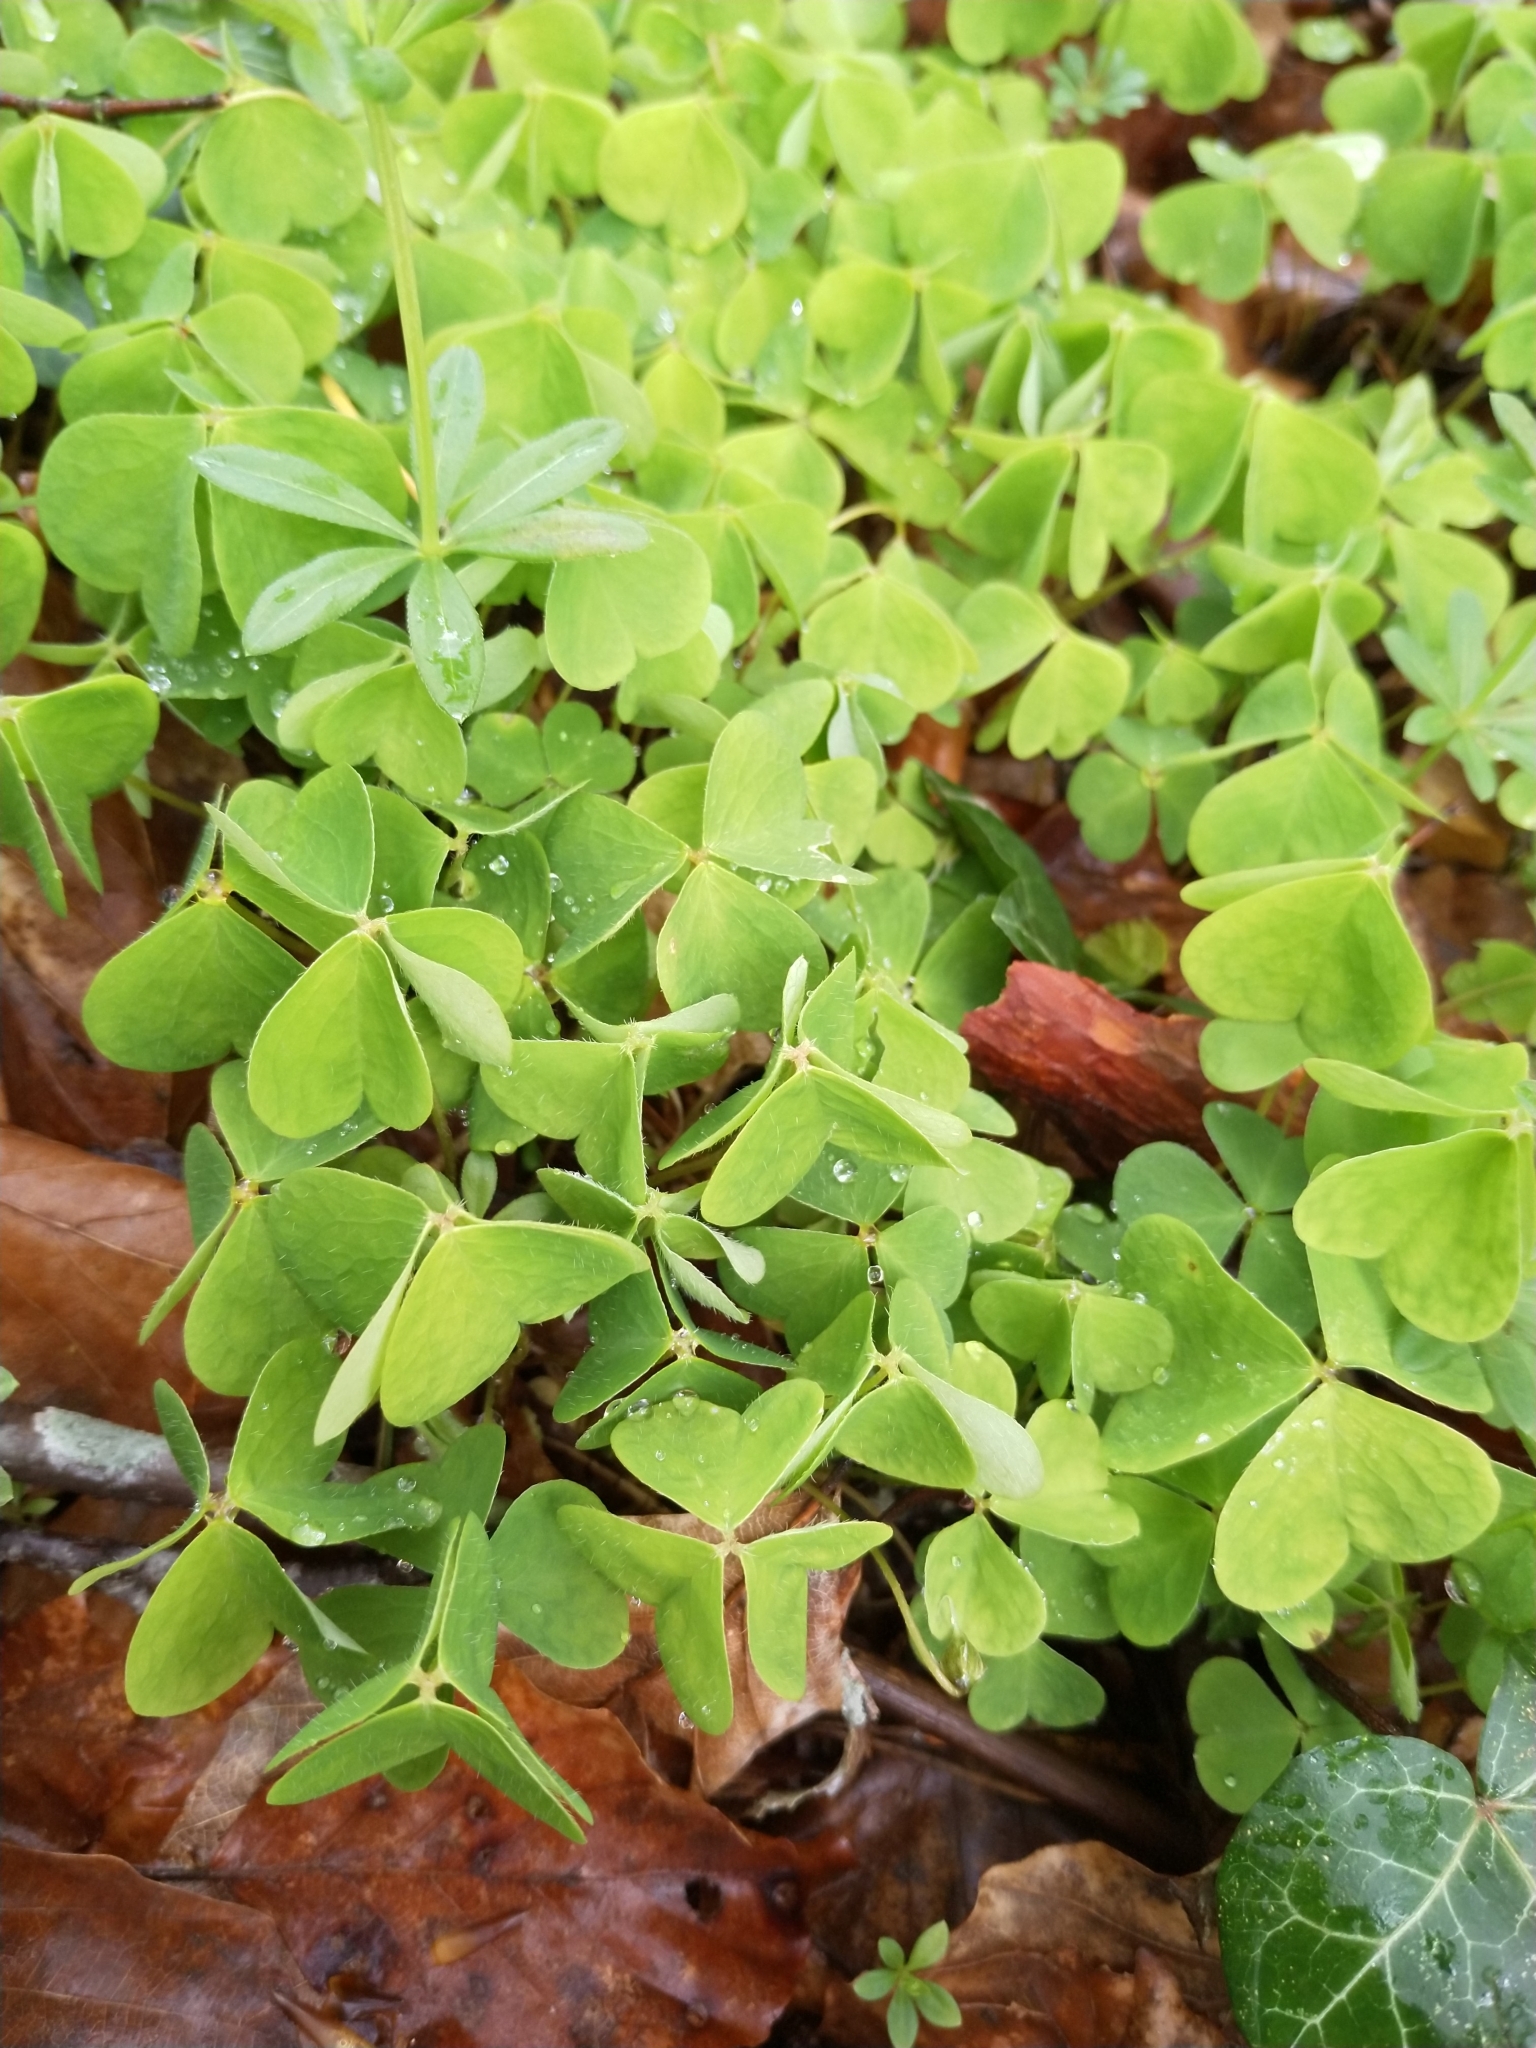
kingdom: Plantae
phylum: Tracheophyta
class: Magnoliopsida
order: Oxalidales
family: Oxalidaceae
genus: Oxalis
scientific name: Oxalis acetosella
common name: Wood-sorrel
